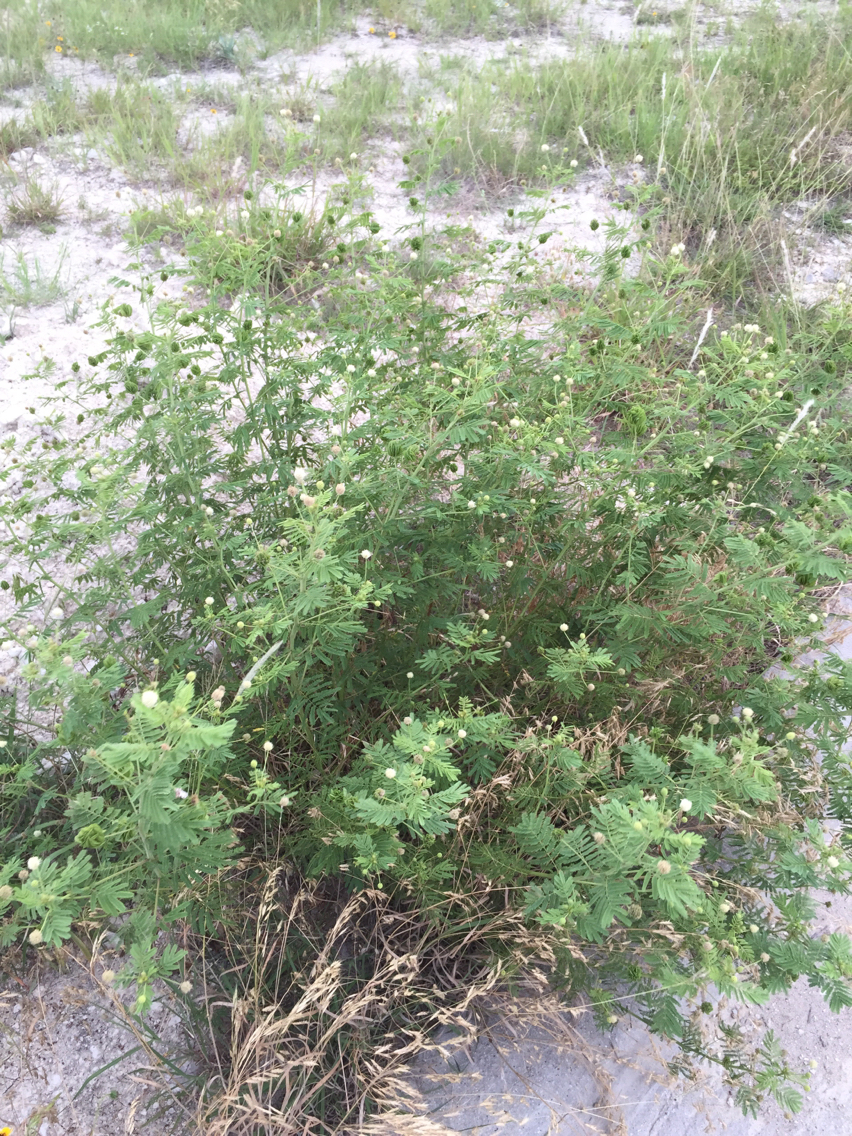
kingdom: Plantae
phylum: Tracheophyta
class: Magnoliopsida
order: Fabales
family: Fabaceae
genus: Desmanthus
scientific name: Desmanthus illinoensis
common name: Illinois bundle-flower
